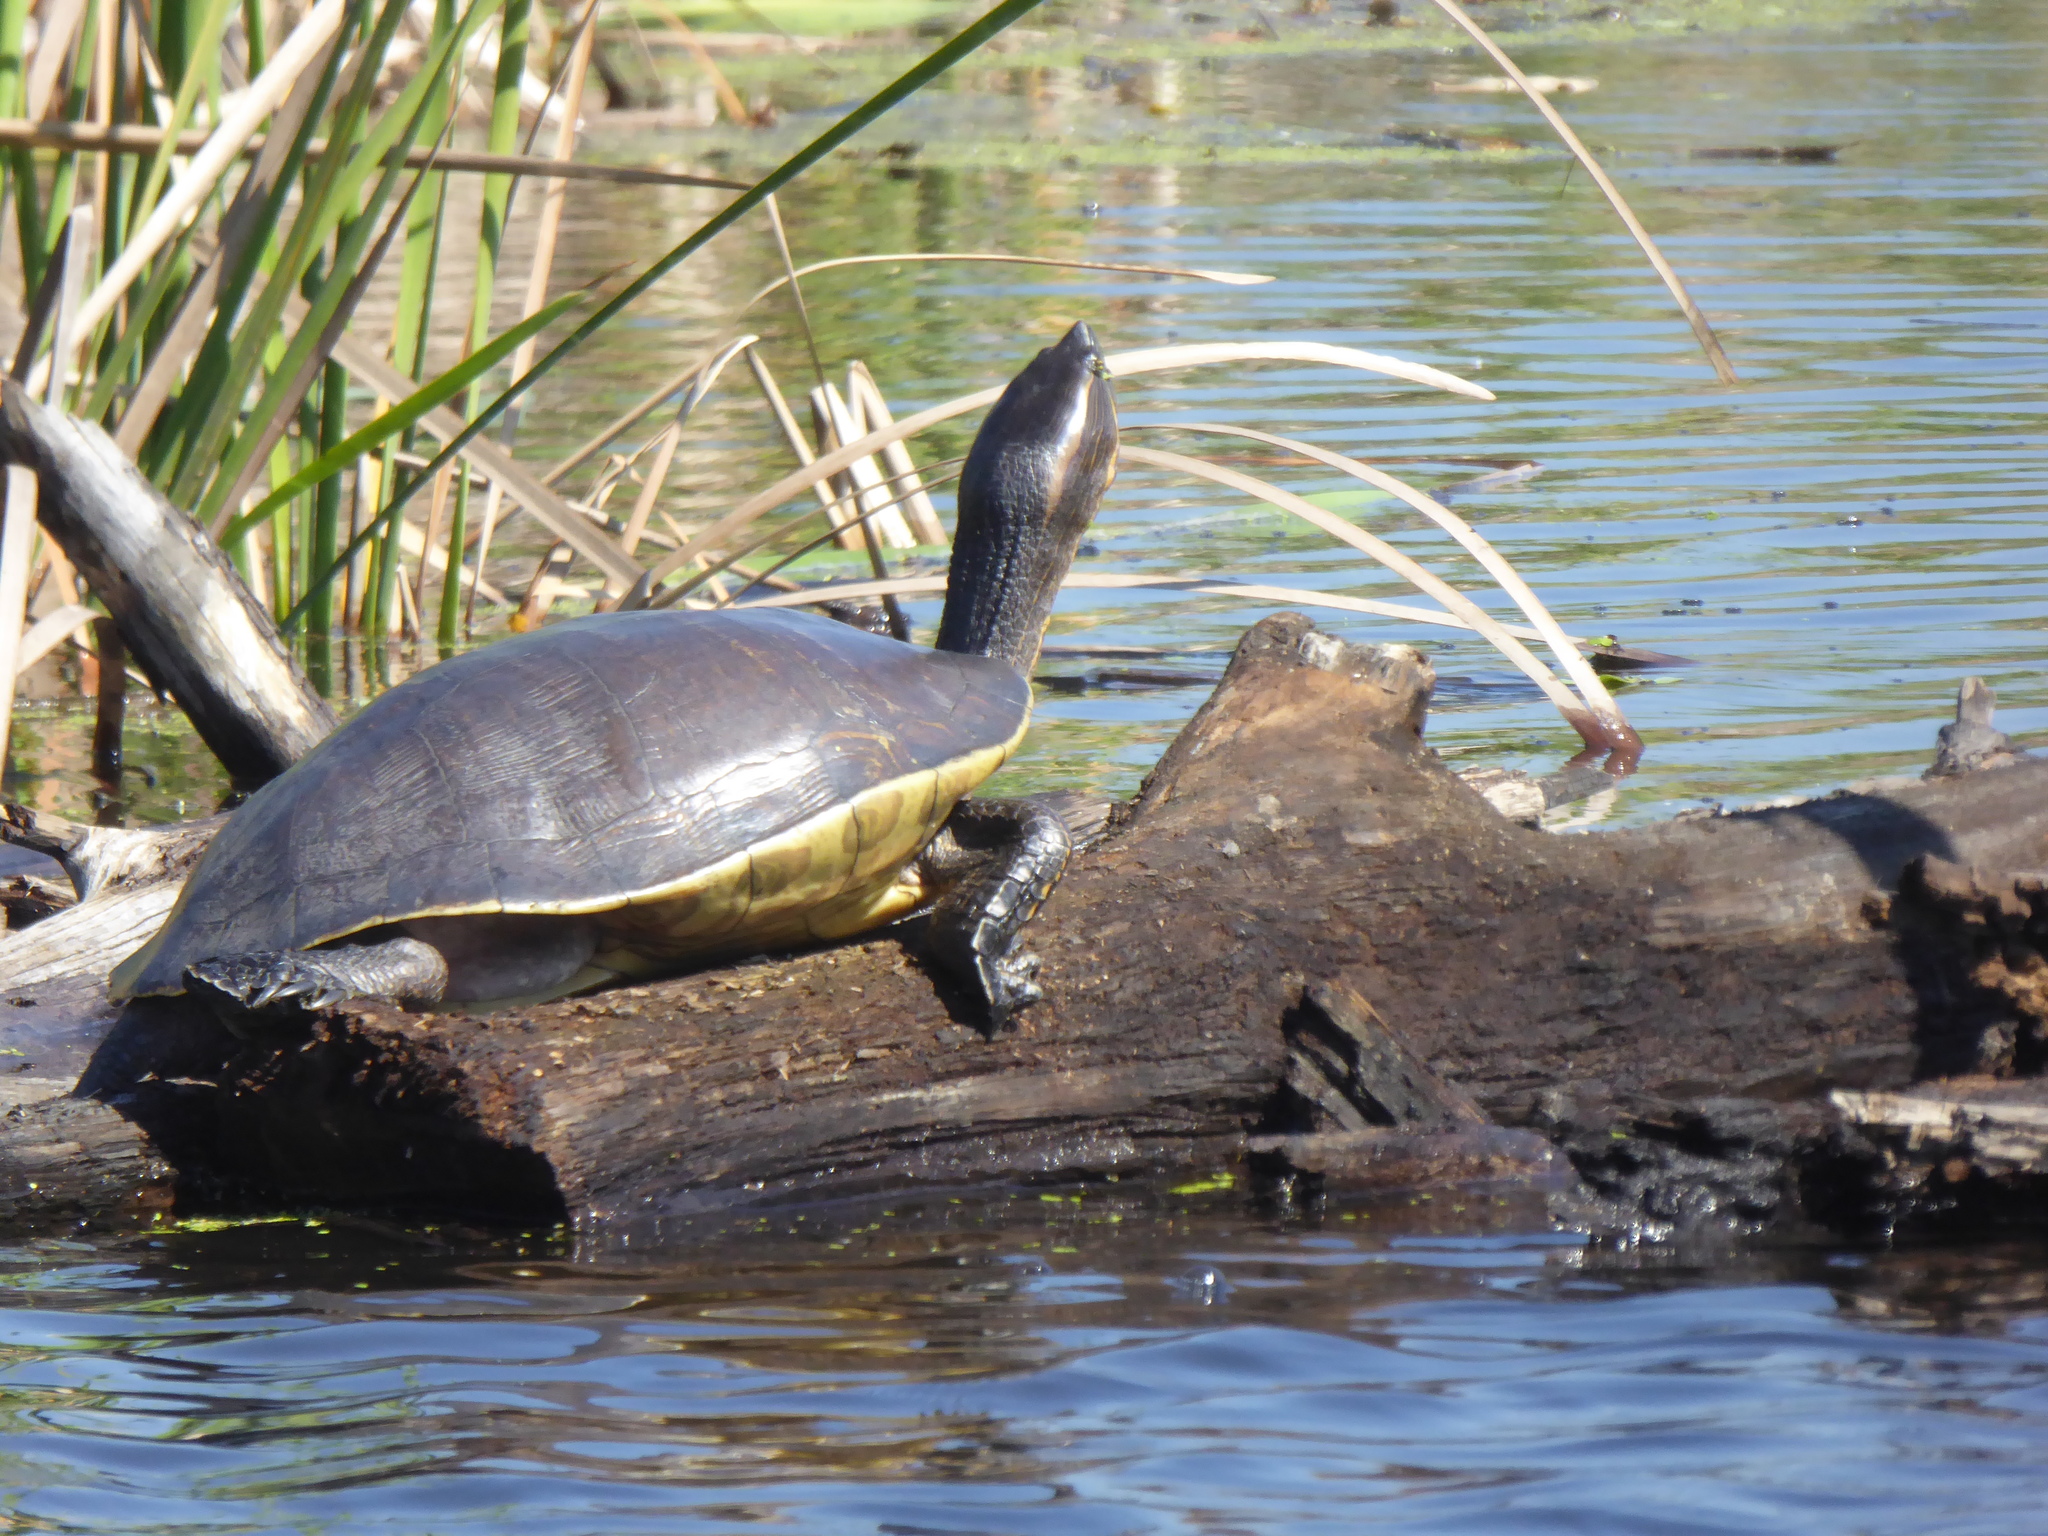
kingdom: Animalia
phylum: Chordata
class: Testudines
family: Emydidae
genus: Trachemys
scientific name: Trachemys grayi
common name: Gray's slider
